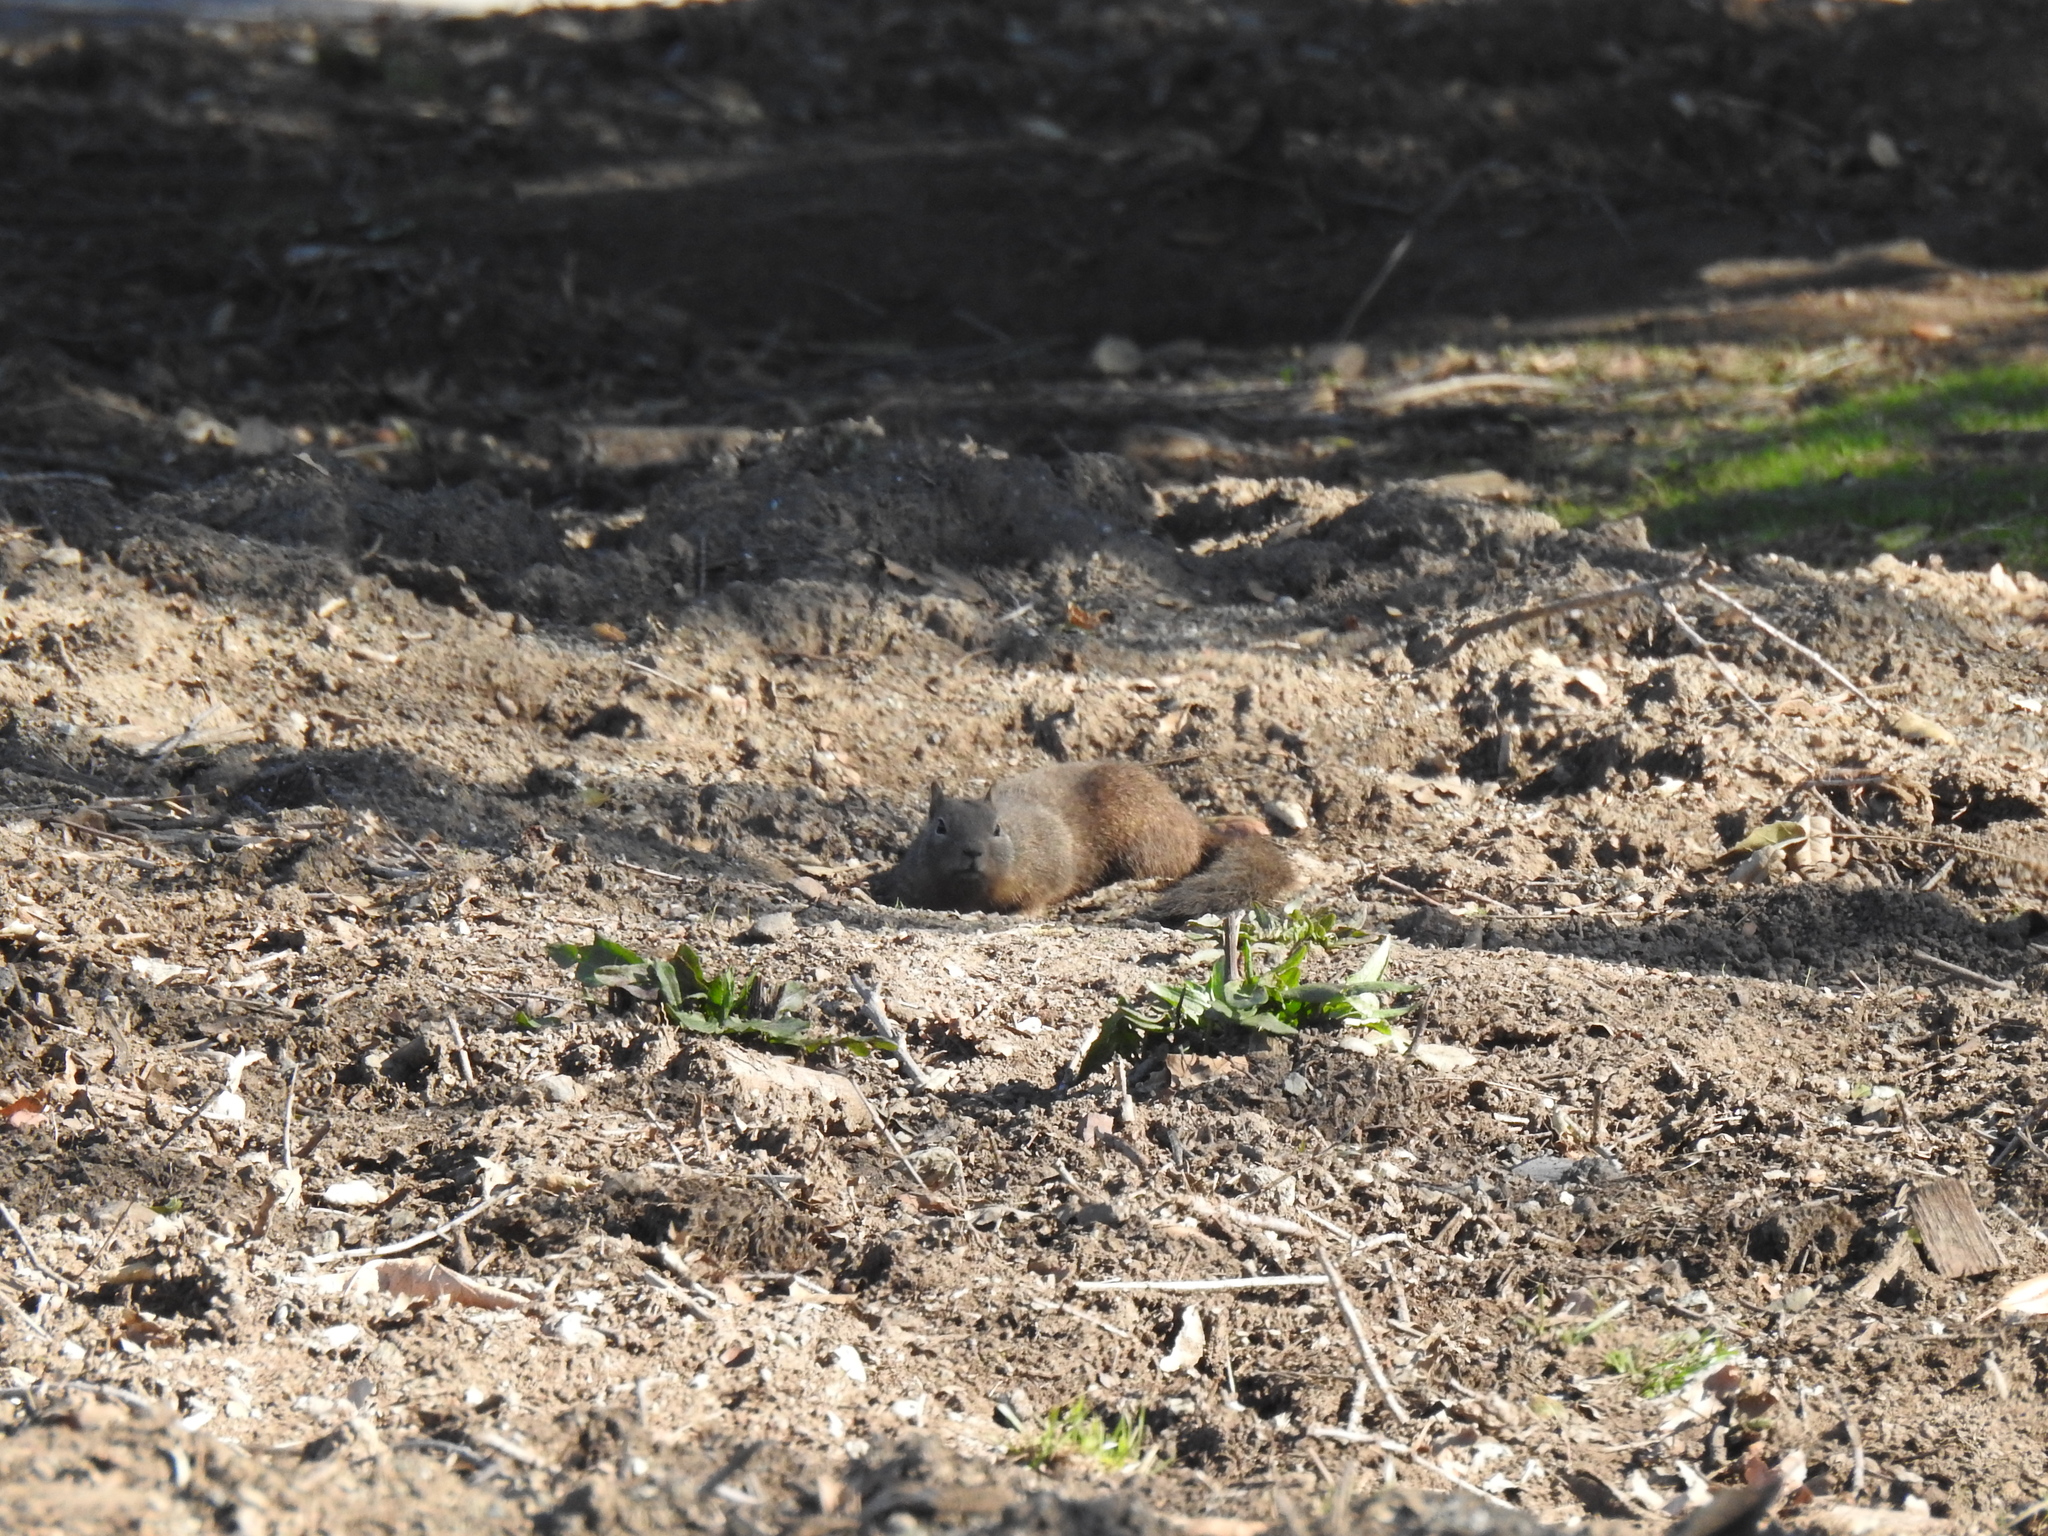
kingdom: Animalia
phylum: Chordata
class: Mammalia
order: Rodentia
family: Sciuridae
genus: Otospermophilus
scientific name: Otospermophilus beecheyi
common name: California ground squirrel
